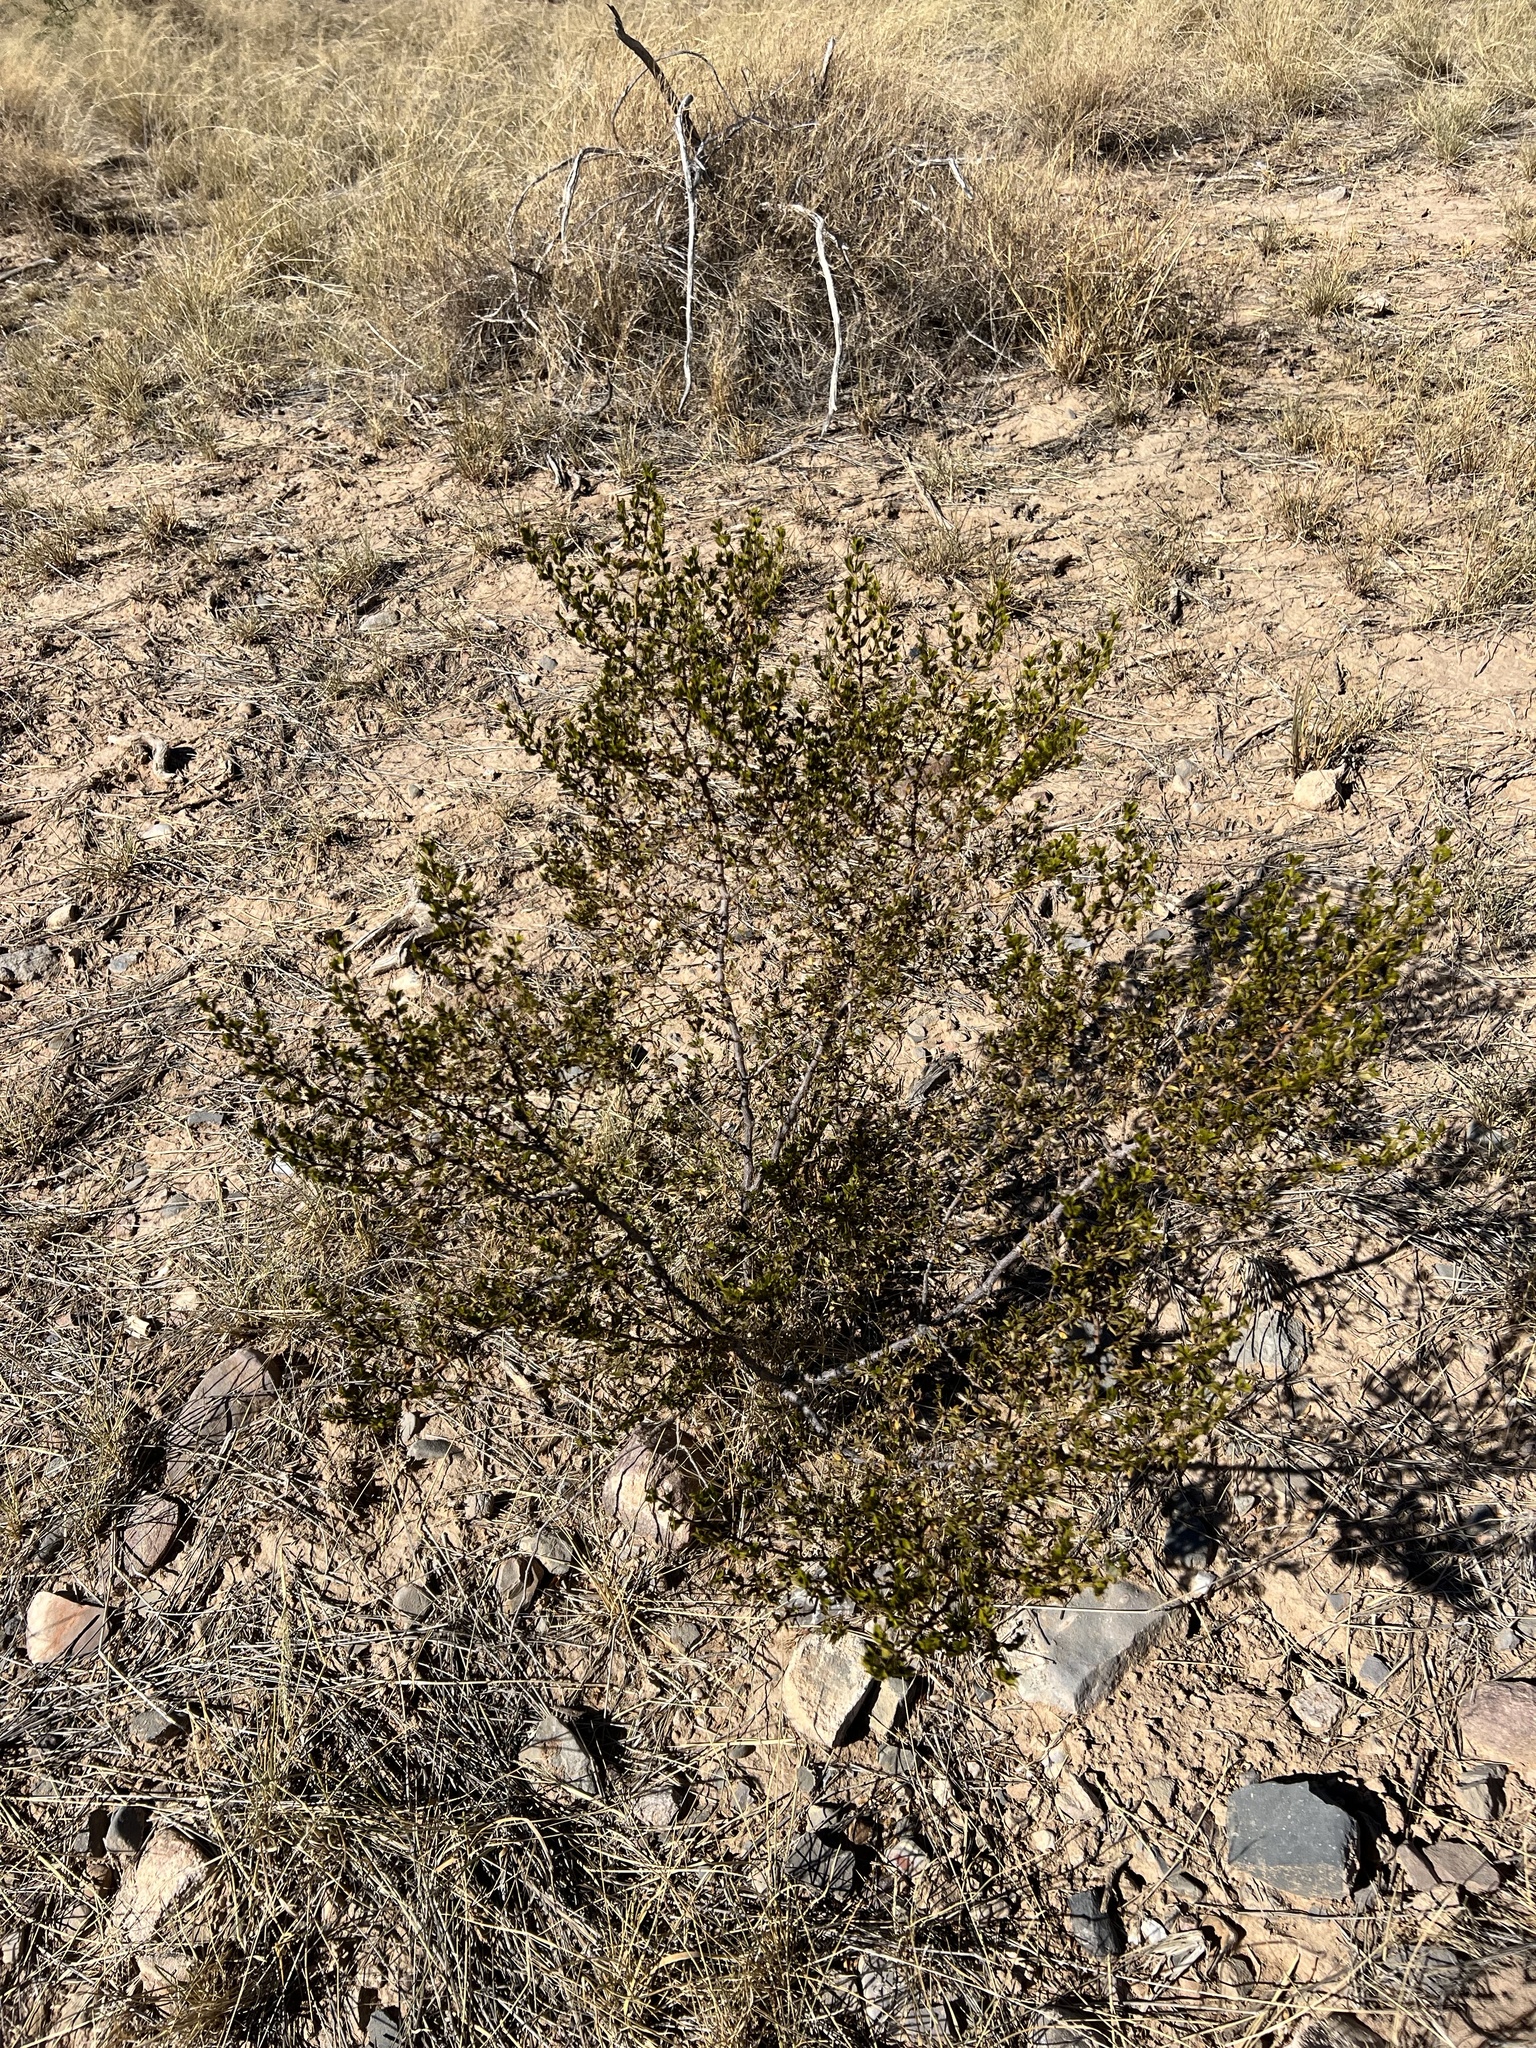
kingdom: Plantae
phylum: Tracheophyta
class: Magnoliopsida
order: Zygophyllales
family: Zygophyllaceae
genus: Larrea
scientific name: Larrea tridentata
